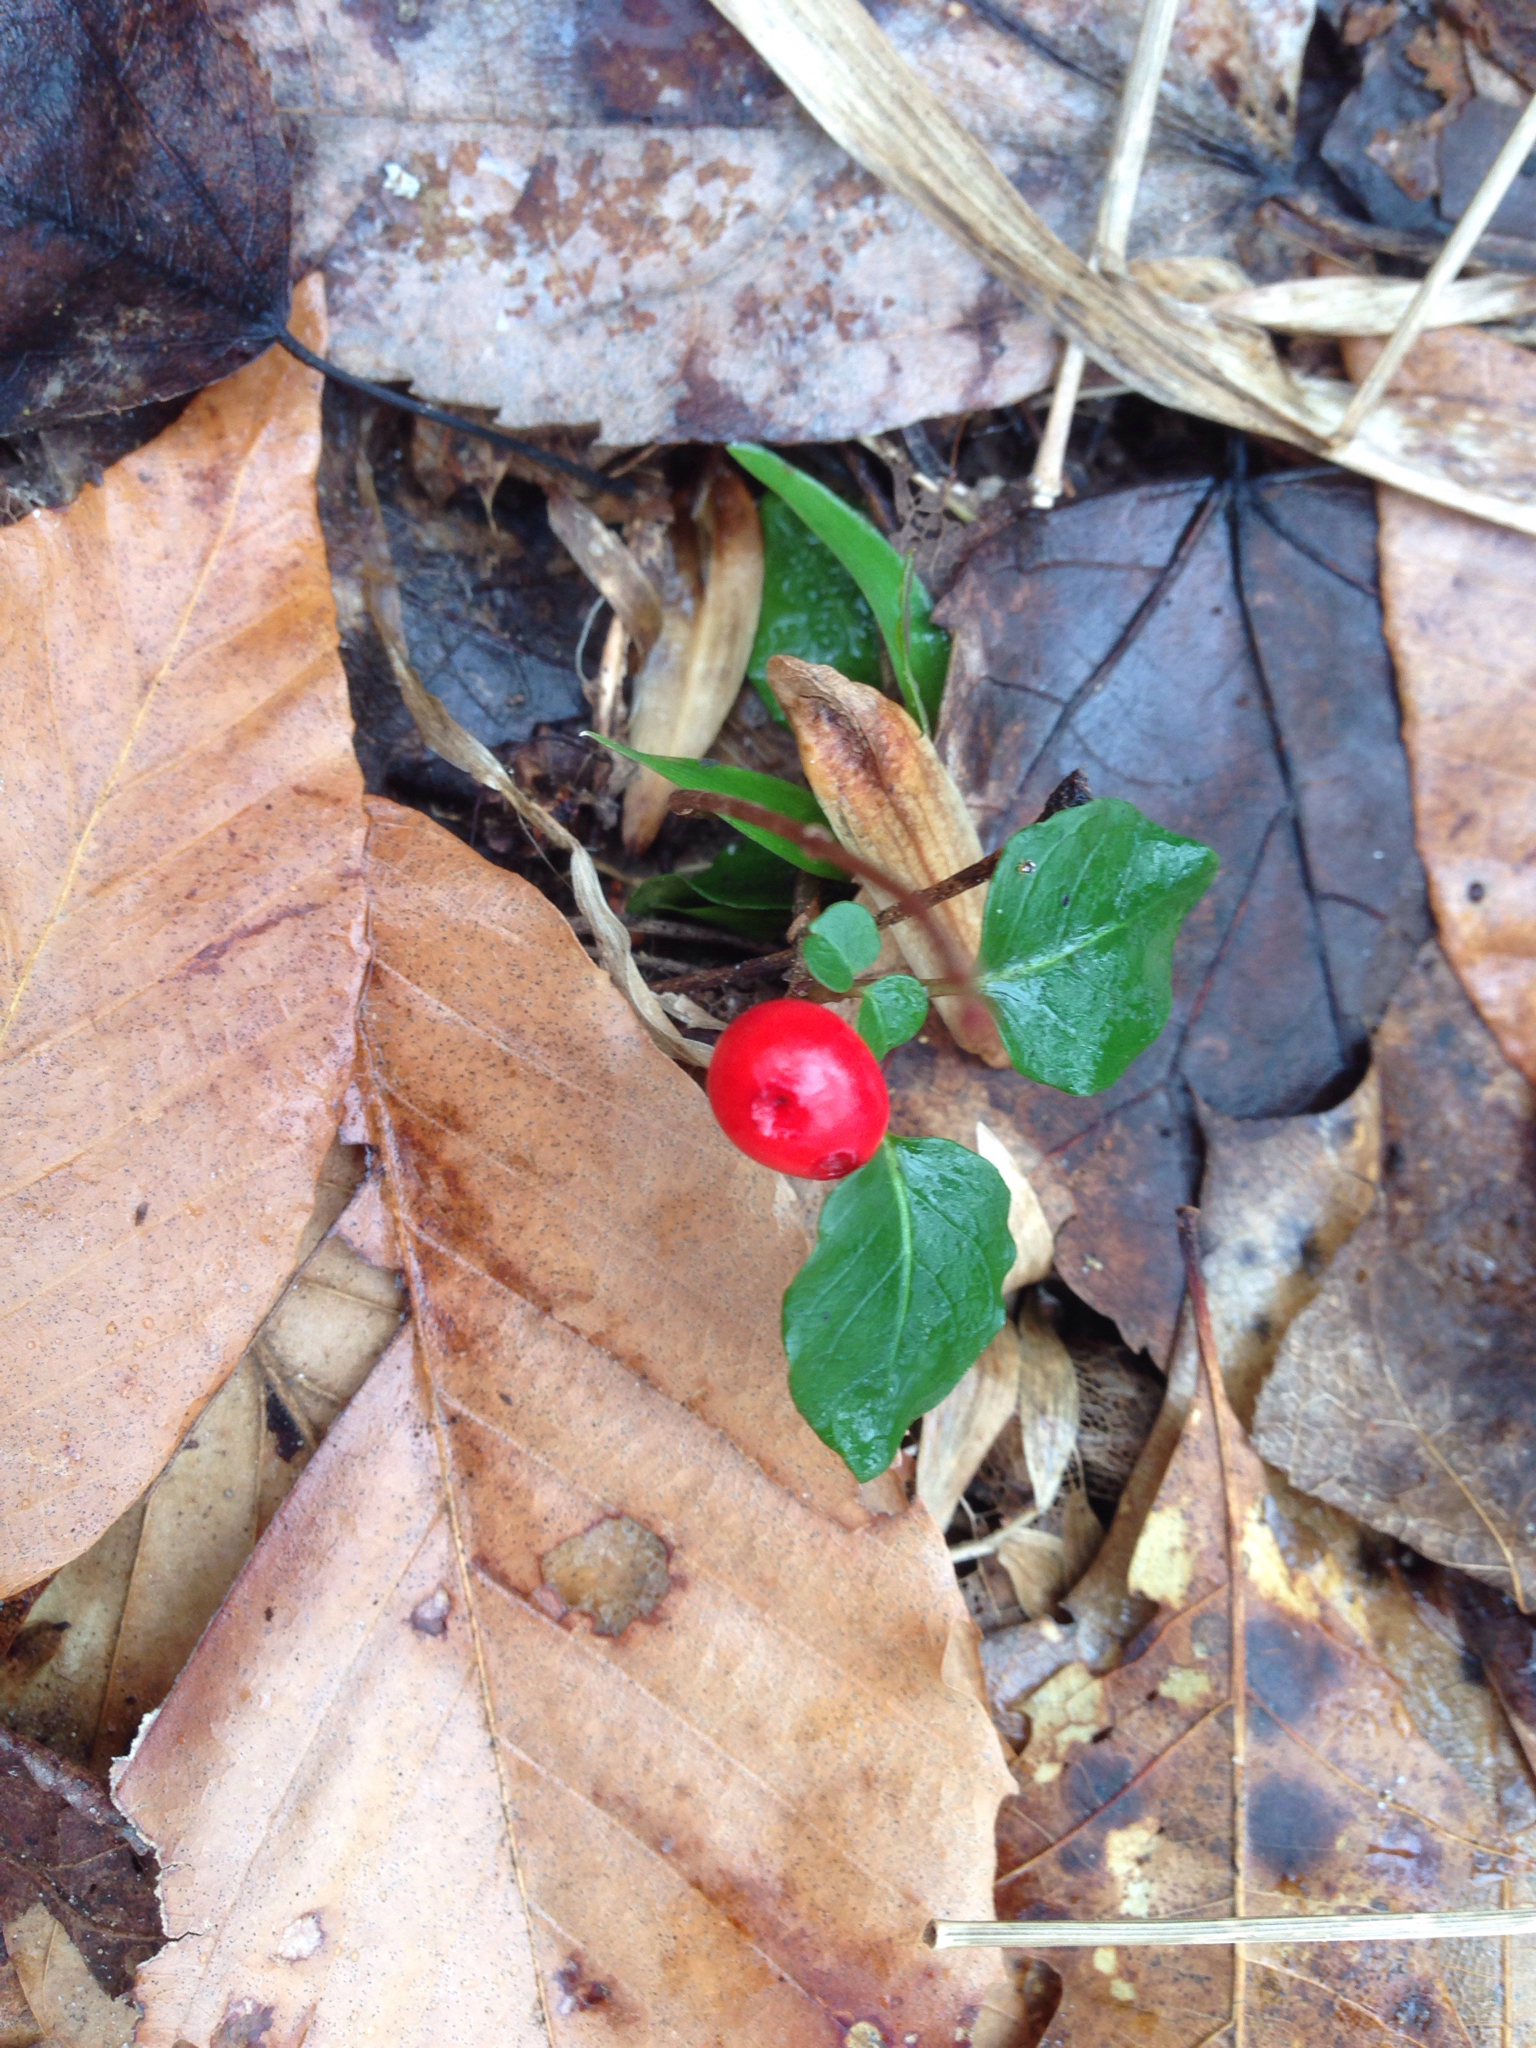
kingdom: Plantae
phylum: Tracheophyta
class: Magnoliopsida
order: Gentianales
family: Rubiaceae
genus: Mitchella
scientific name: Mitchella repens
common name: Partridge-berry
